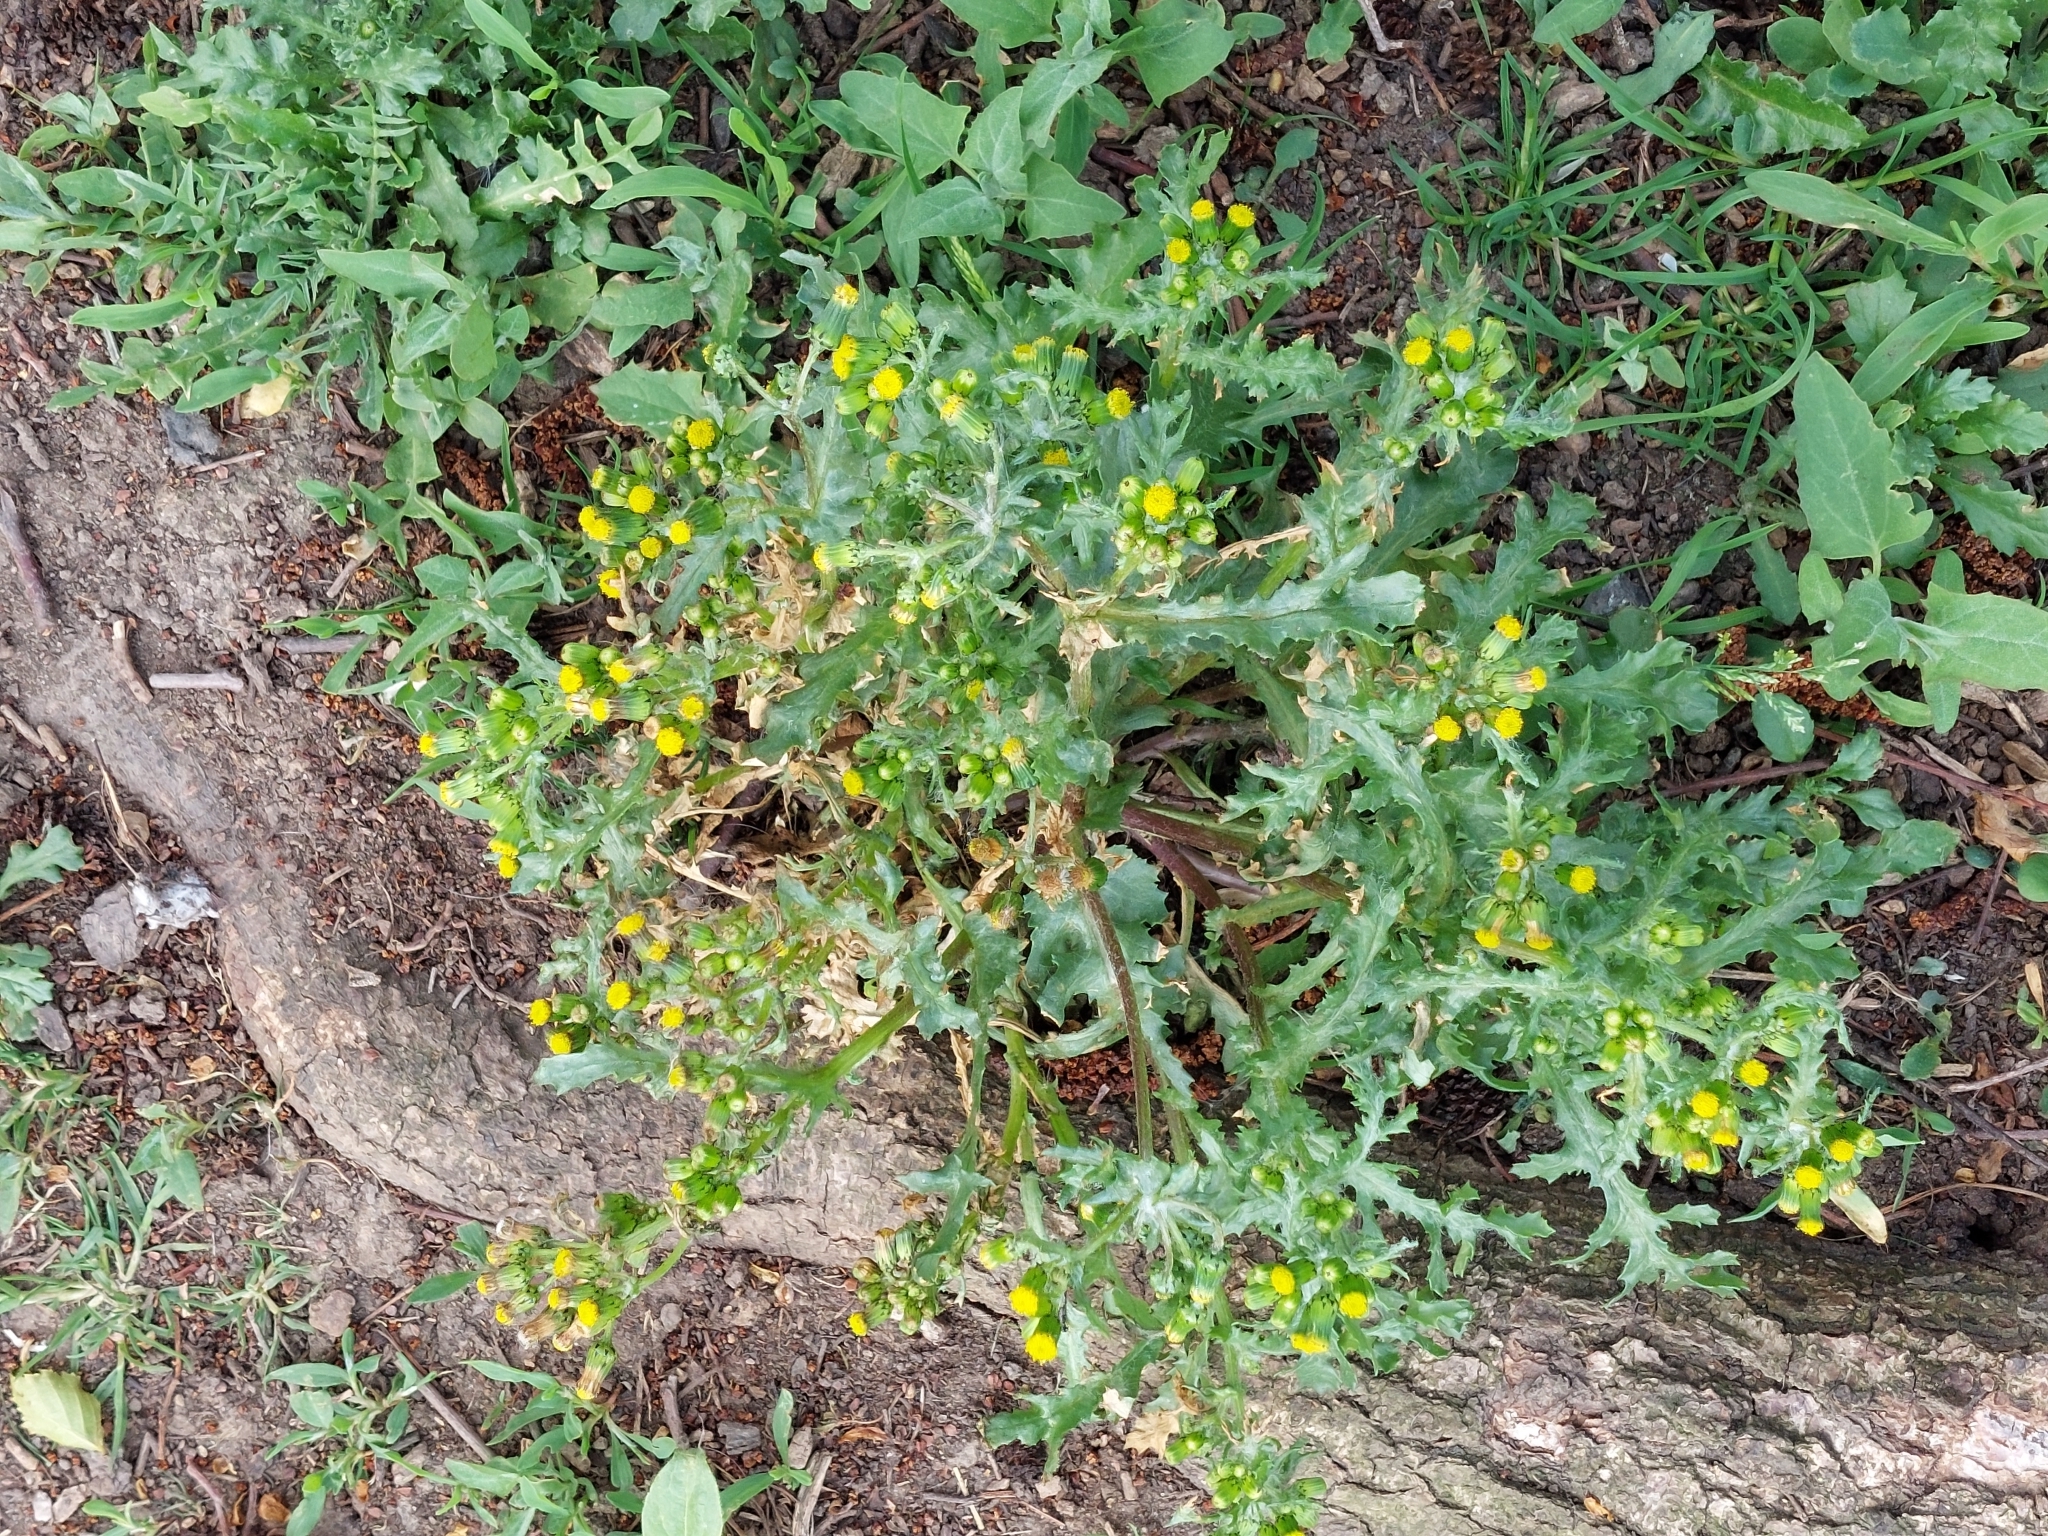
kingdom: Plantae
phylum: Tracheophyta
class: Magnoliopsida
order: Asterales
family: Asteraceae
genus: Senecio
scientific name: Senecio vulgaris
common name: Old-man-in-the-spring
